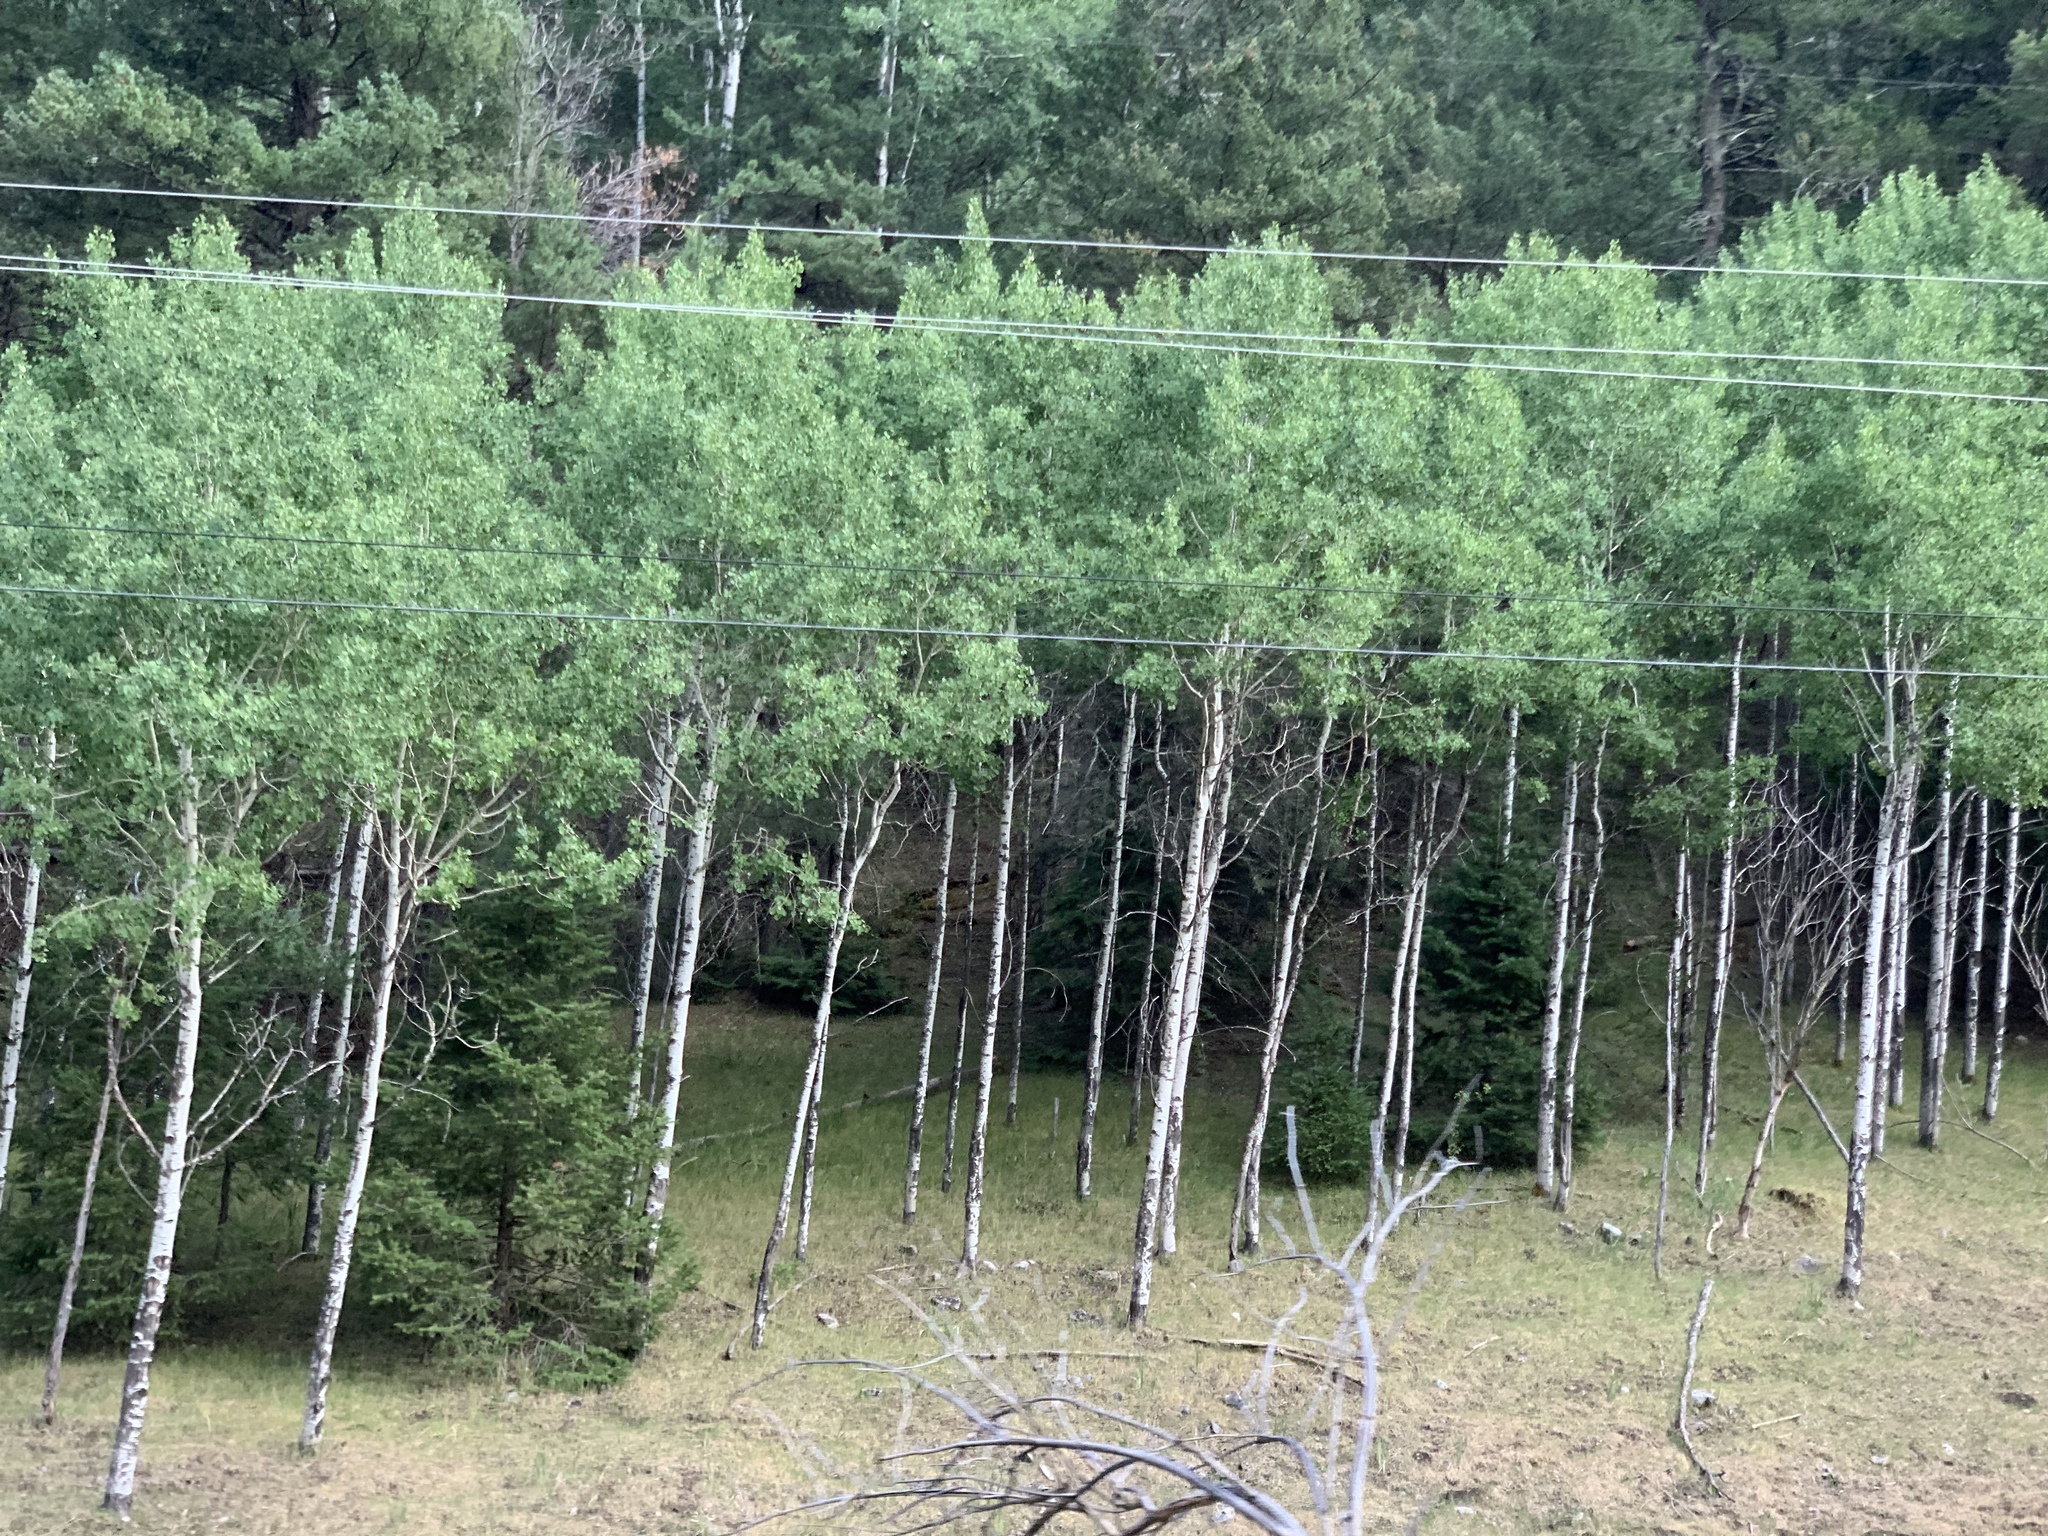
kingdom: Plantae
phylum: Tracheophyta
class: Magnoliopsida
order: Malpighiales
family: Salicaceae
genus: Populus
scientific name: Populus tremuloides
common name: Quaking aspen
